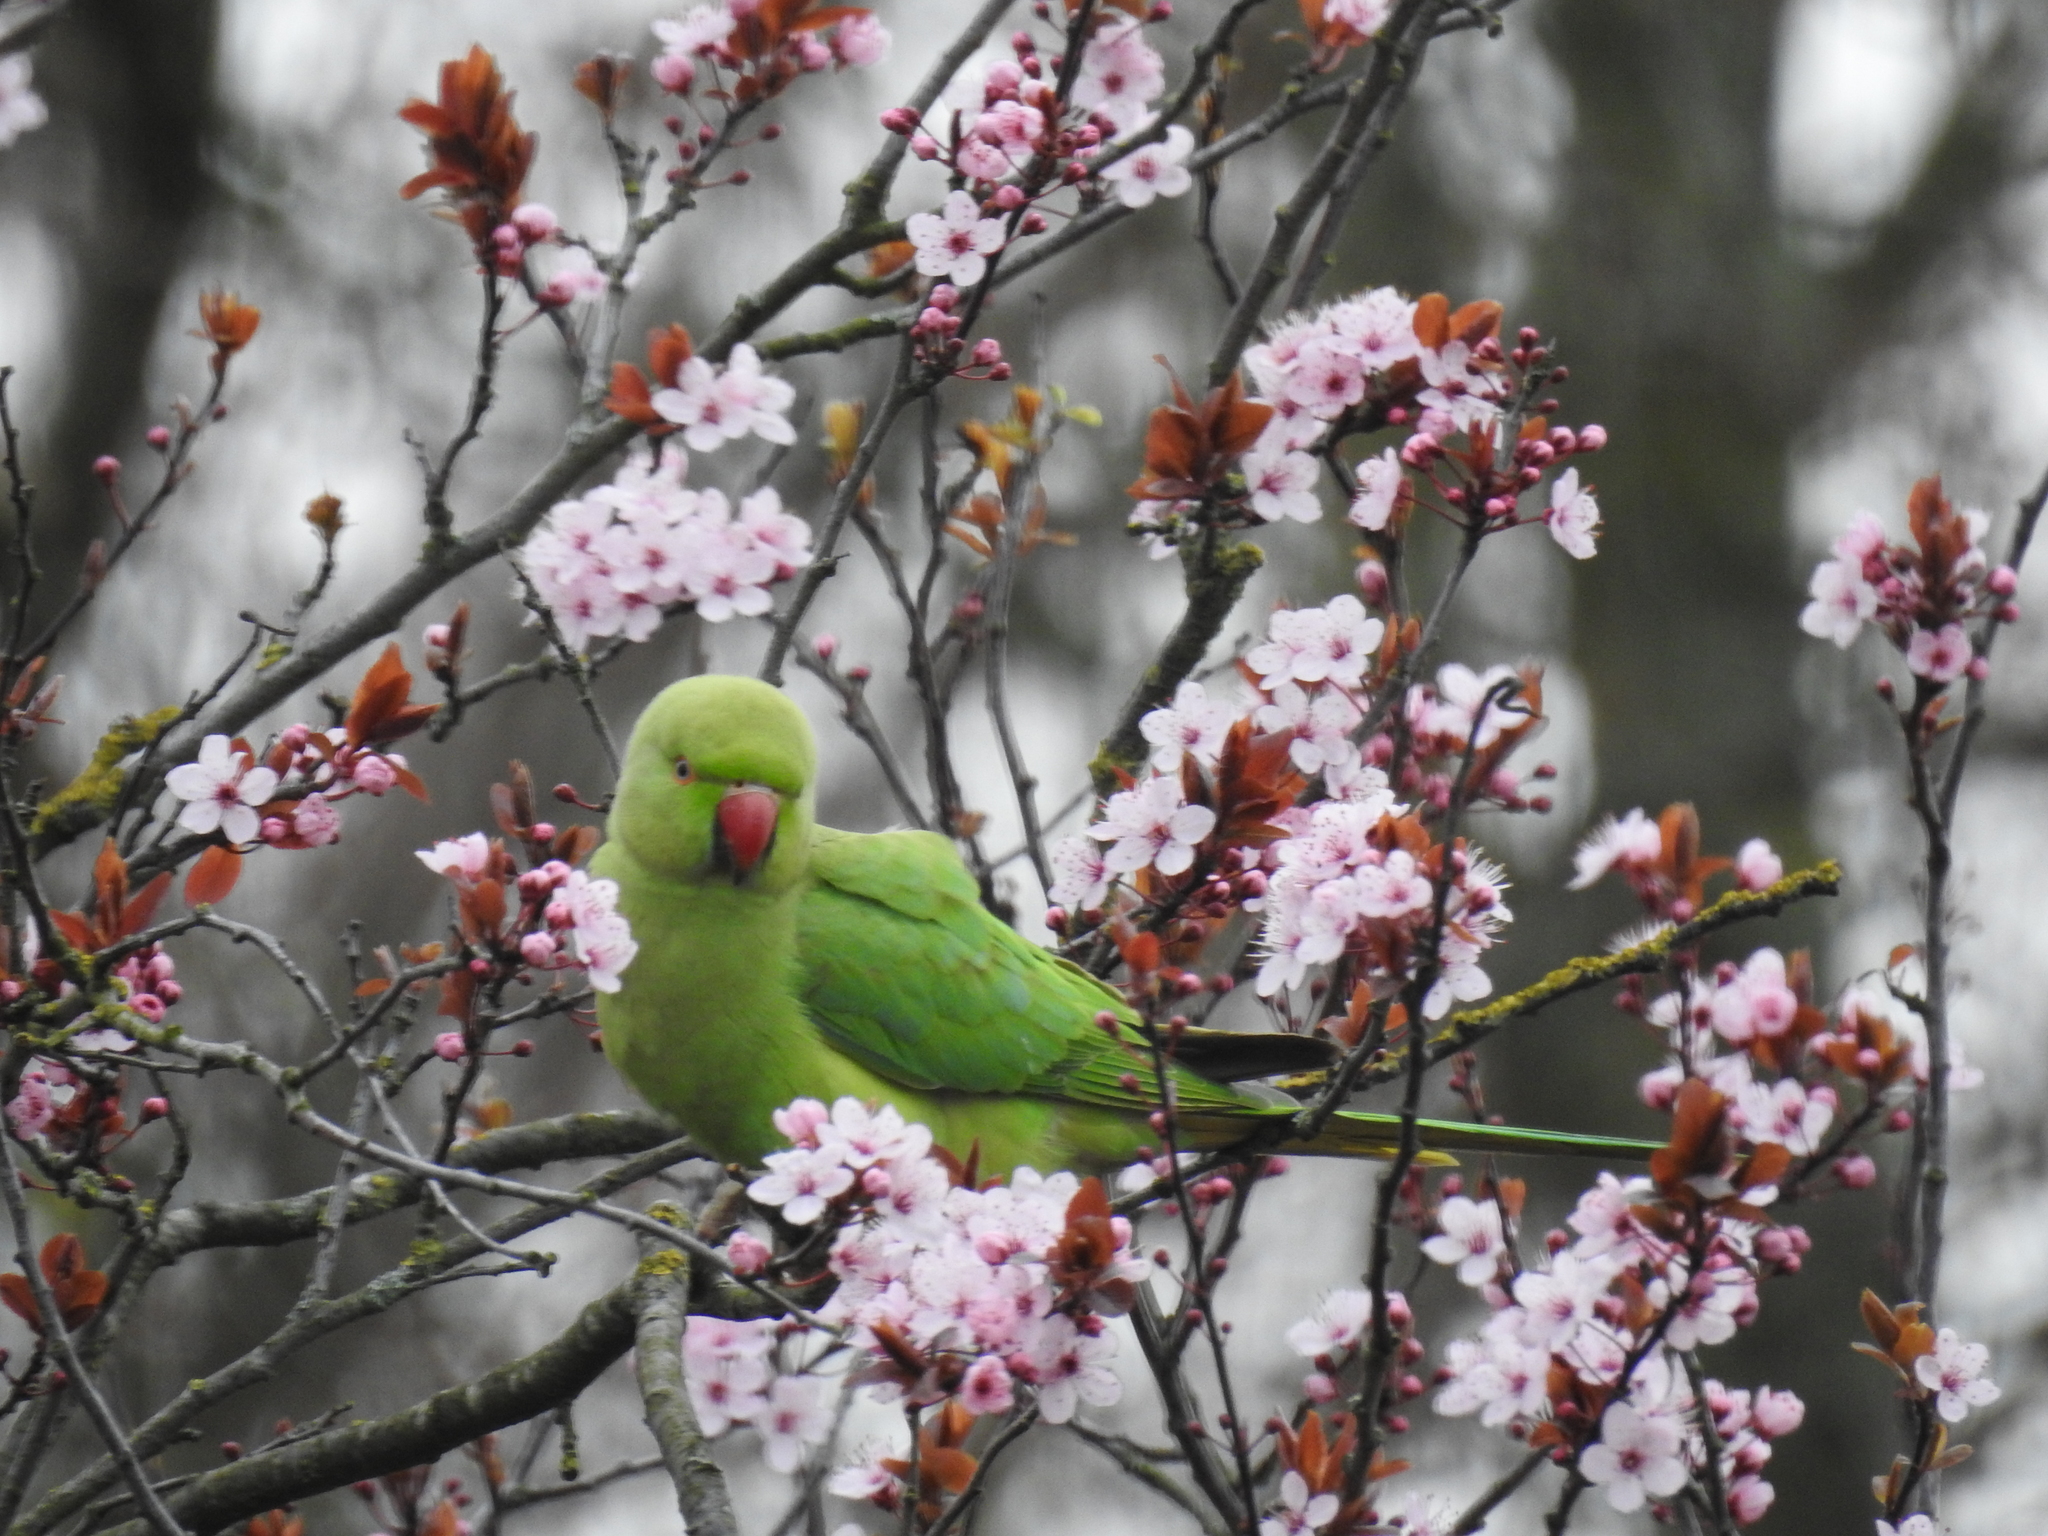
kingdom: Animalia
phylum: Chordata
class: Aves
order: Psittaciformes
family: Psittacidae
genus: Psittacula
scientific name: Psittacula krameri
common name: Rose-ringed parakeet
